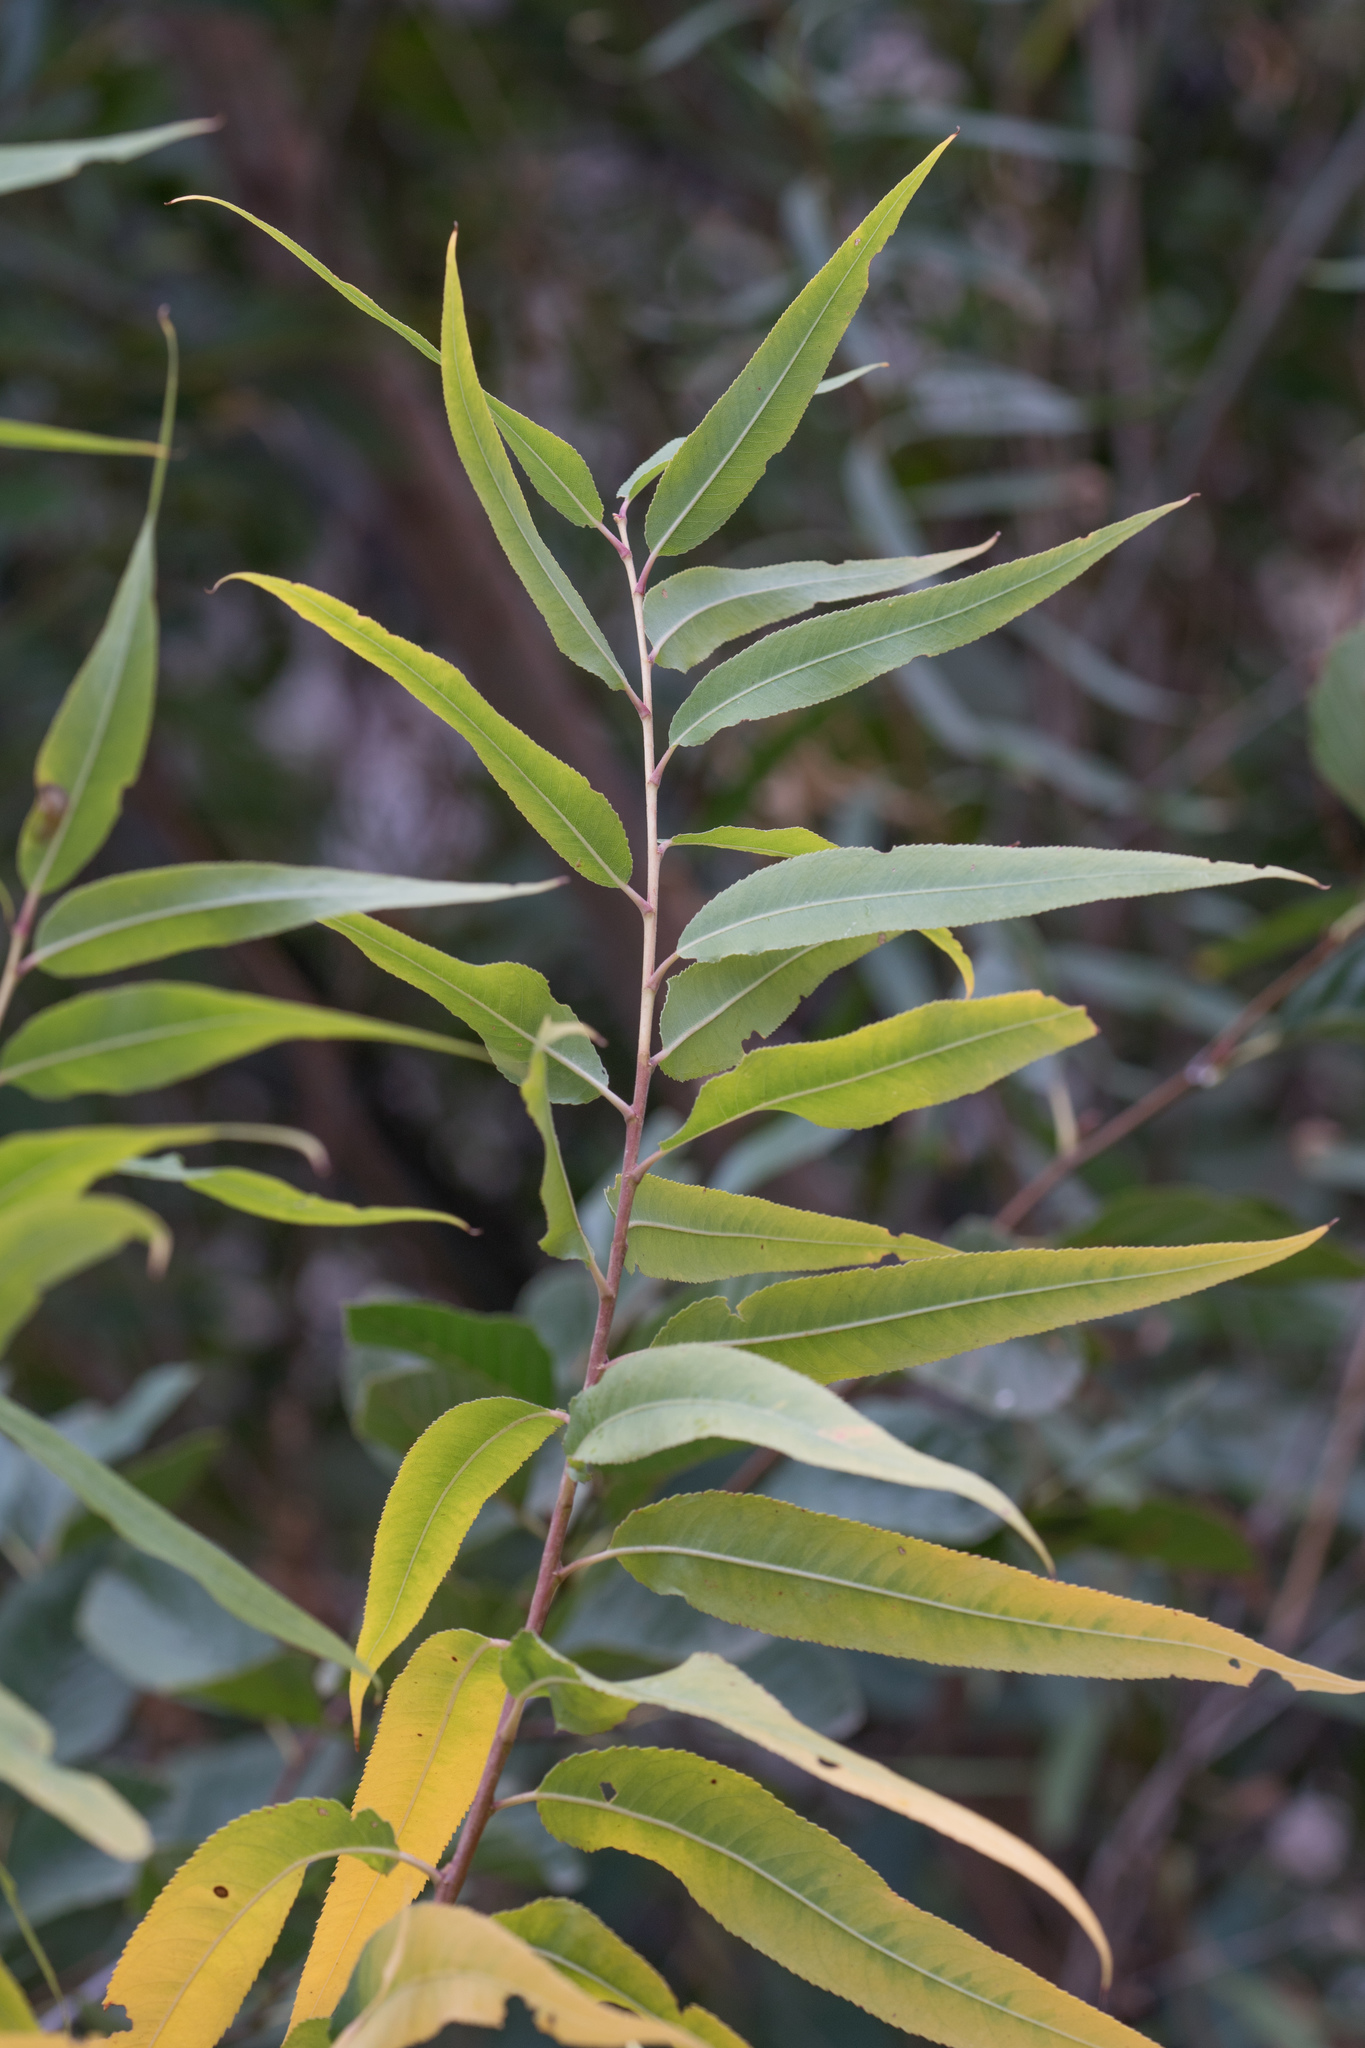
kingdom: Plantae
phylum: Tracheophyta
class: Magnoliopsida
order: Malpighiales
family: Salicaceae
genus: Salix
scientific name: Salix gooddingii
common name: Goodding's willow
